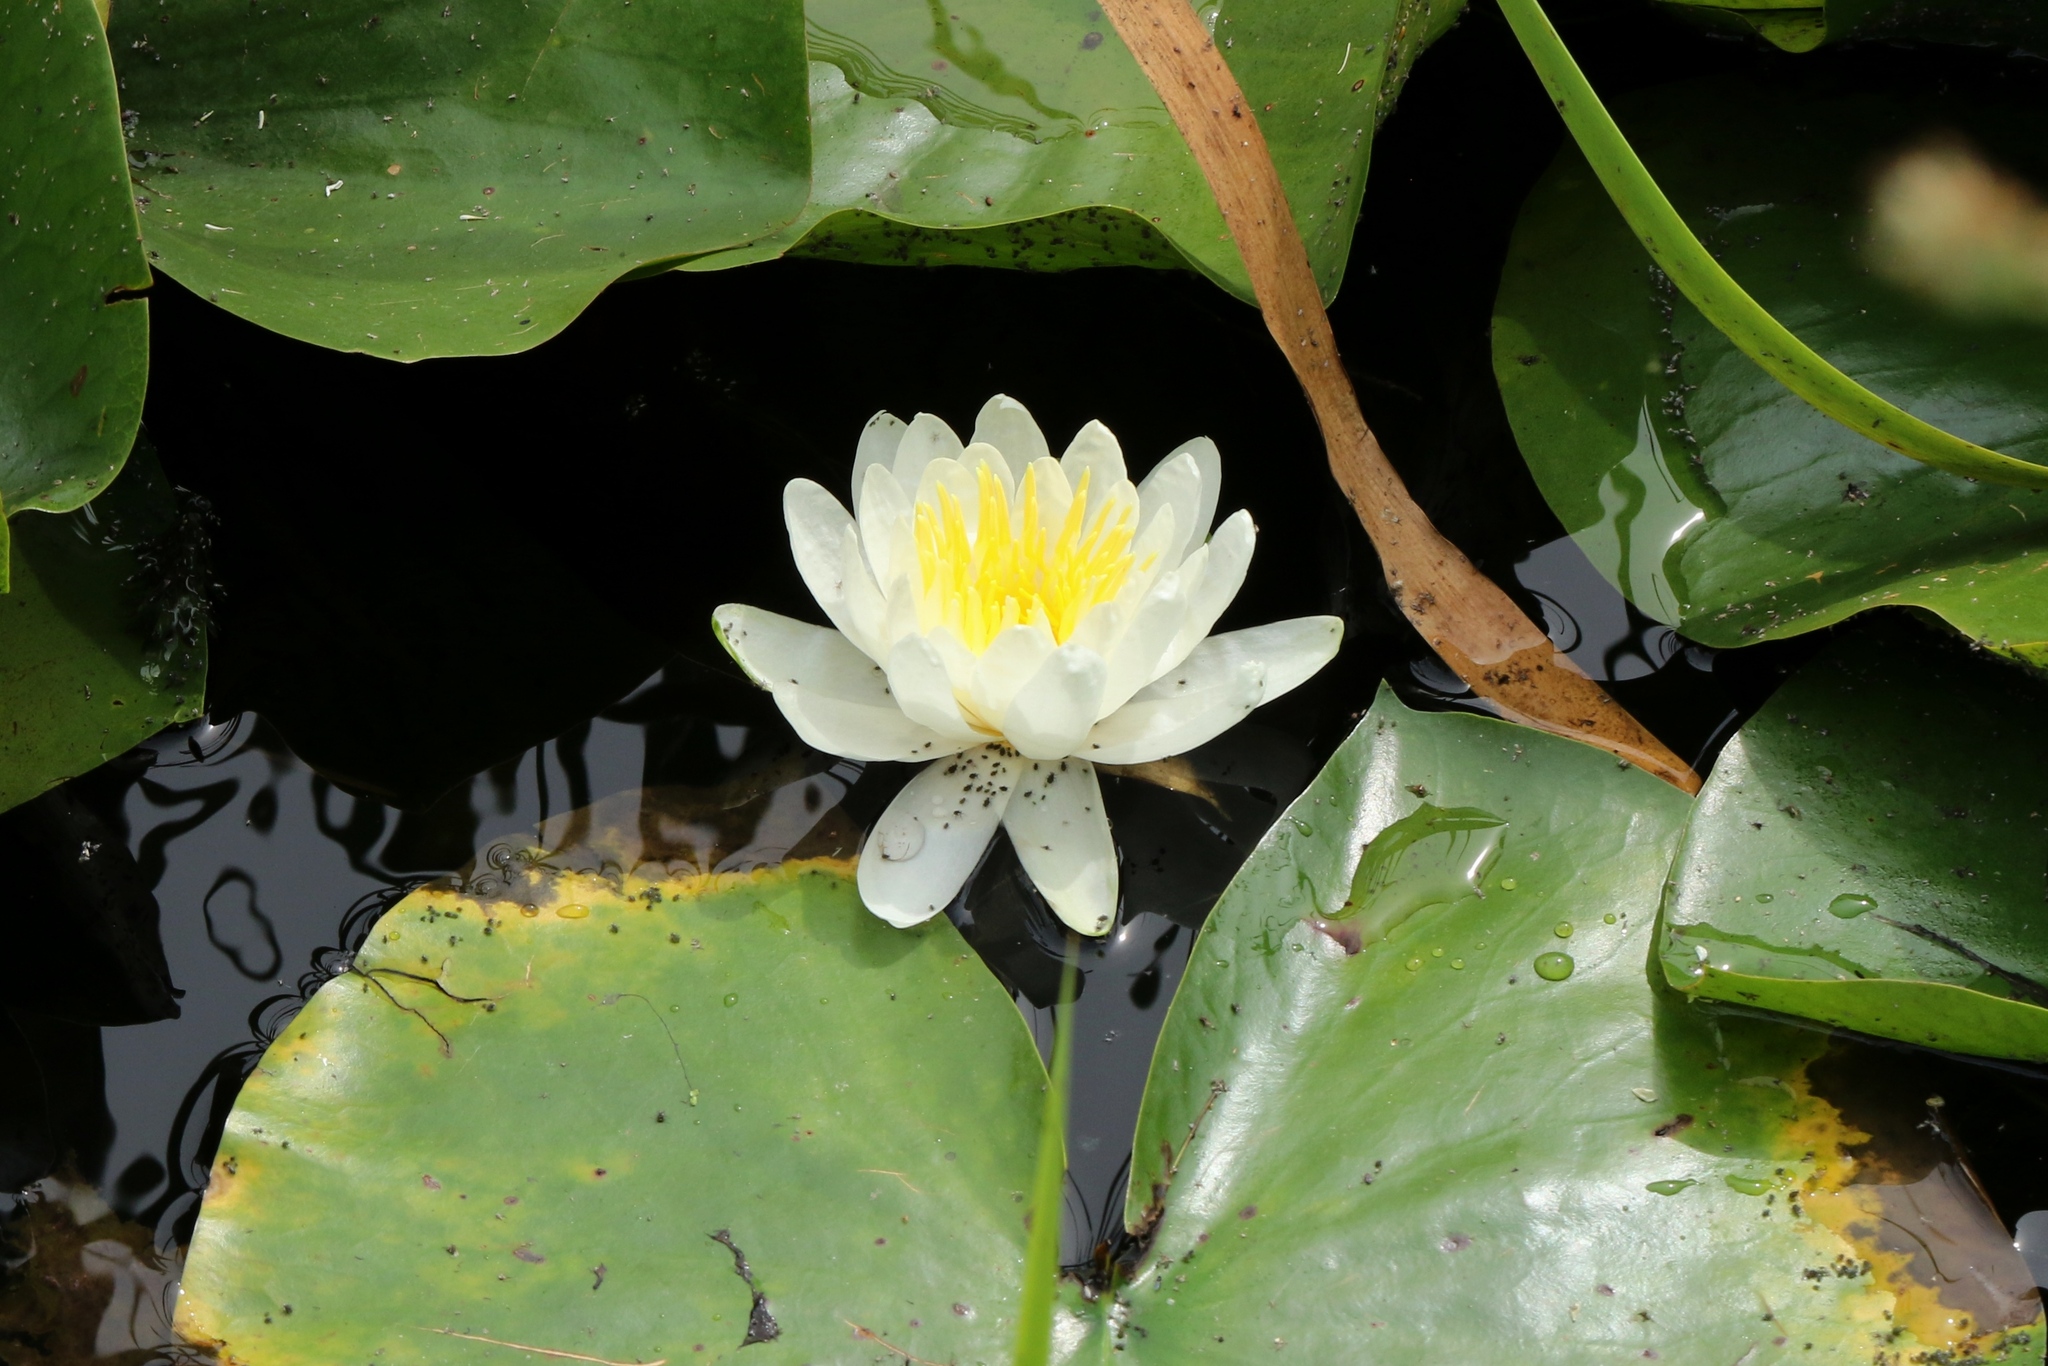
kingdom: Plantae
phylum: Tracheophyta
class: Magnoliopsida
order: Nymphaeales
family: Nymphaeaceae
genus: Nymphaea
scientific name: Nymphaea odorata
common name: Fragrant water-lily
